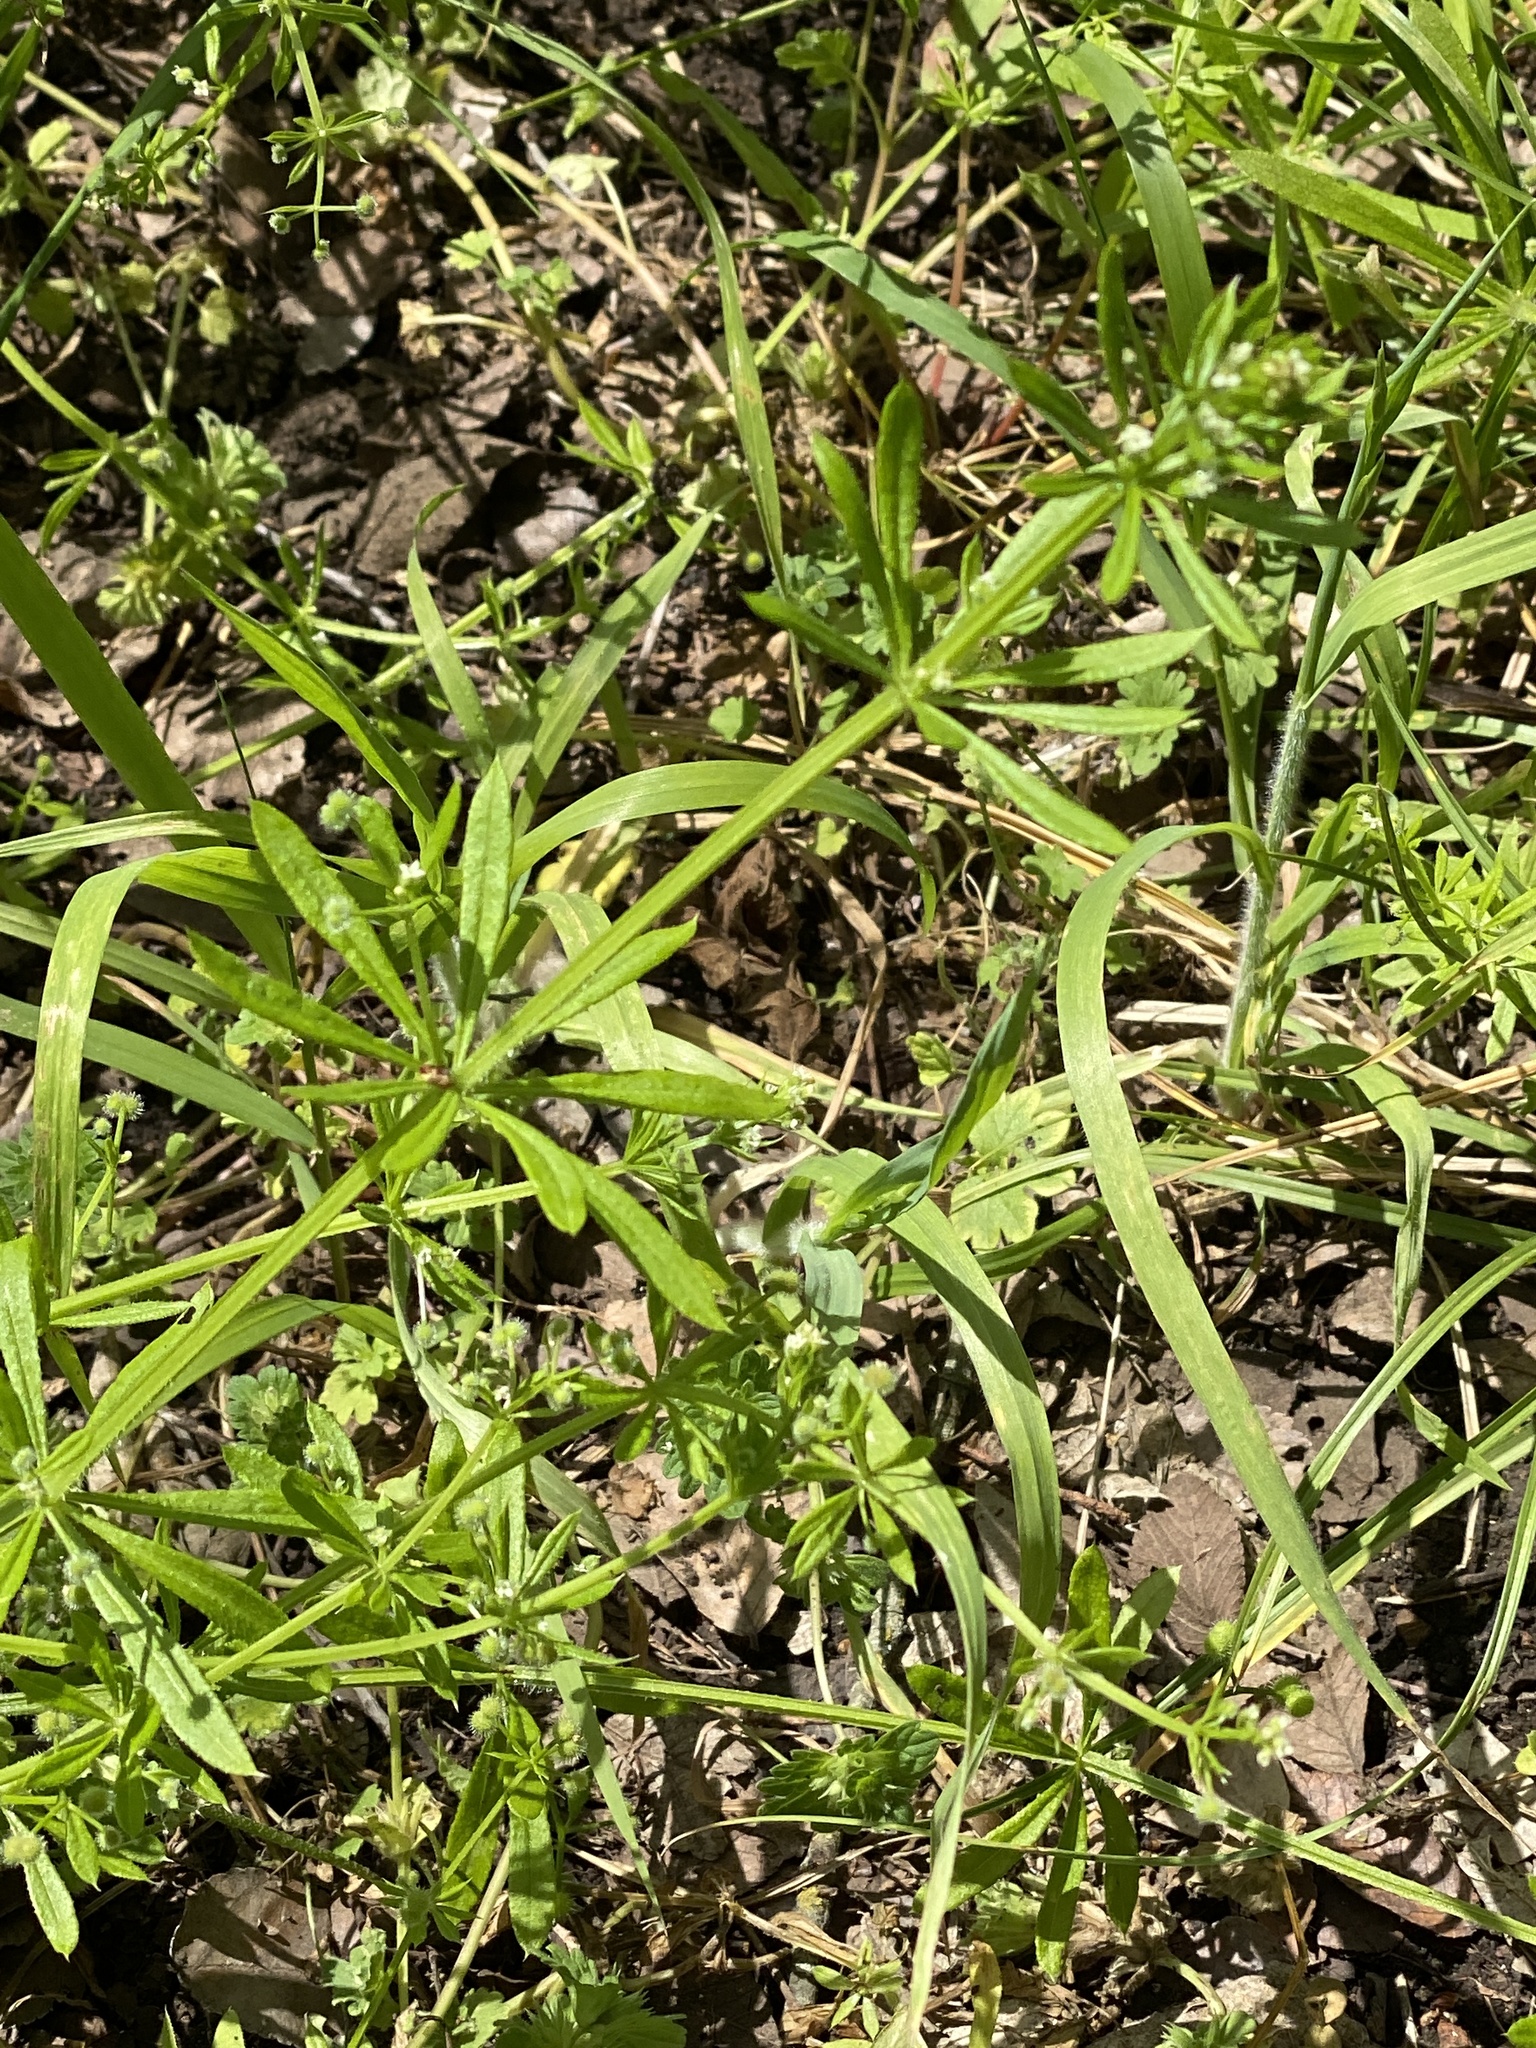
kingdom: Plantae
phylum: Tracheophyta
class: Magnoliopsida
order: Gentianales
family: Rubiaceae
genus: Galium
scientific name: Galium aparine
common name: Cleavers
